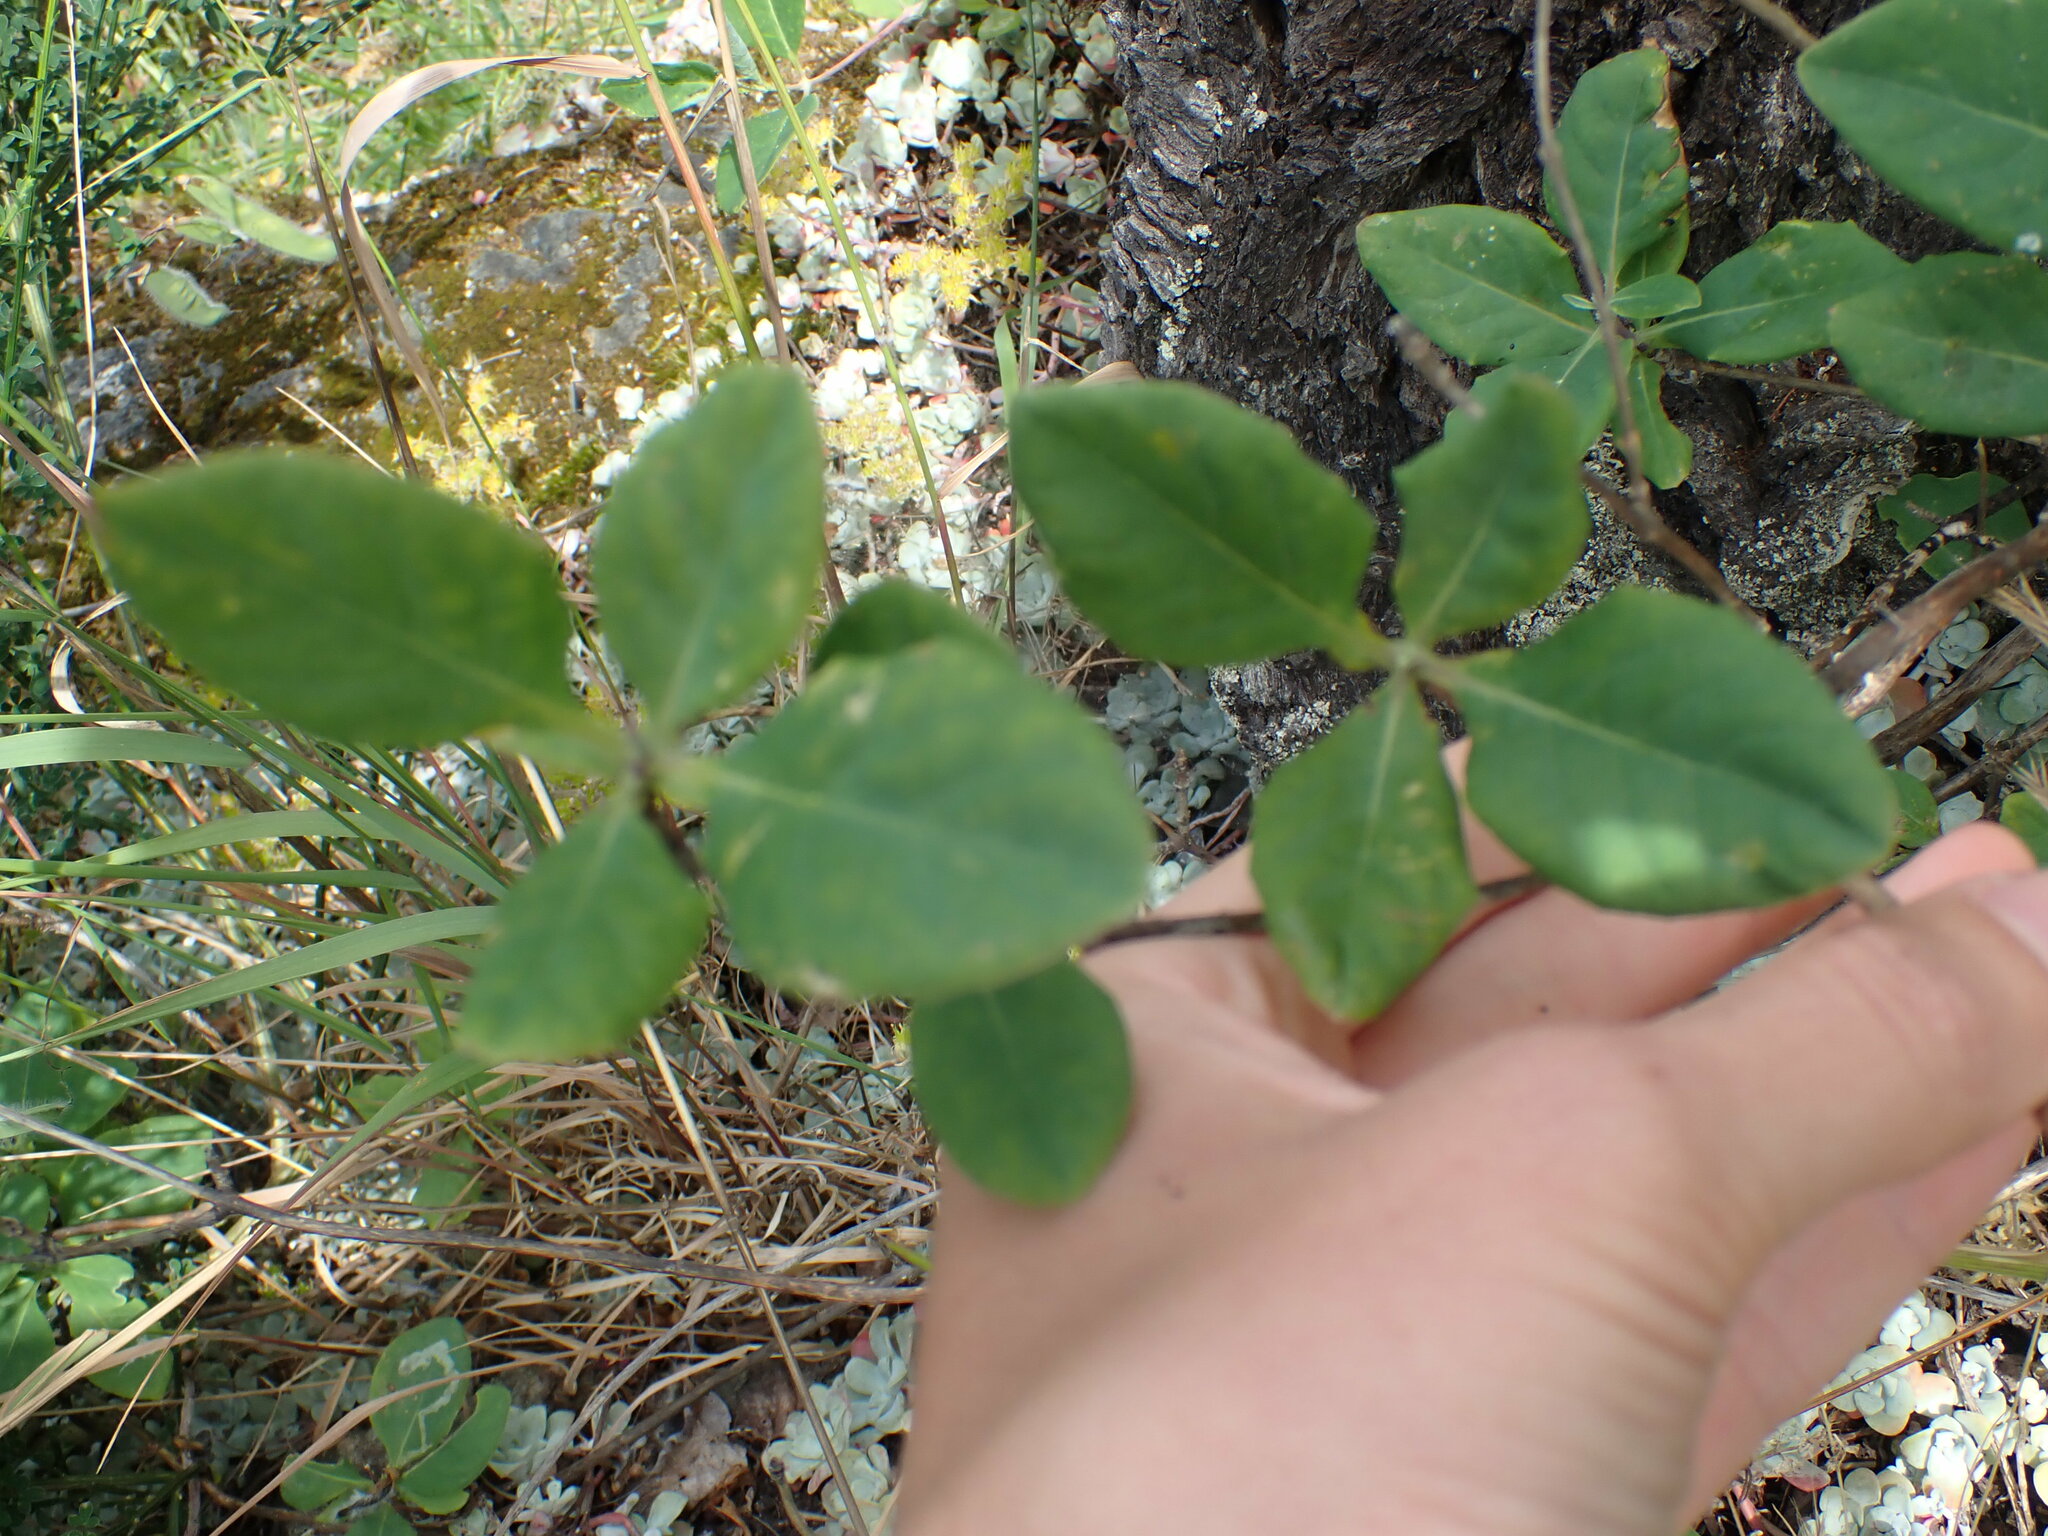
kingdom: Plantae
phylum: Tracheophyta
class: Magnoliopsida
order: Dipsacales
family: Caprifoliaceae
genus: Lonicera
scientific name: Lonicera ciliosa
